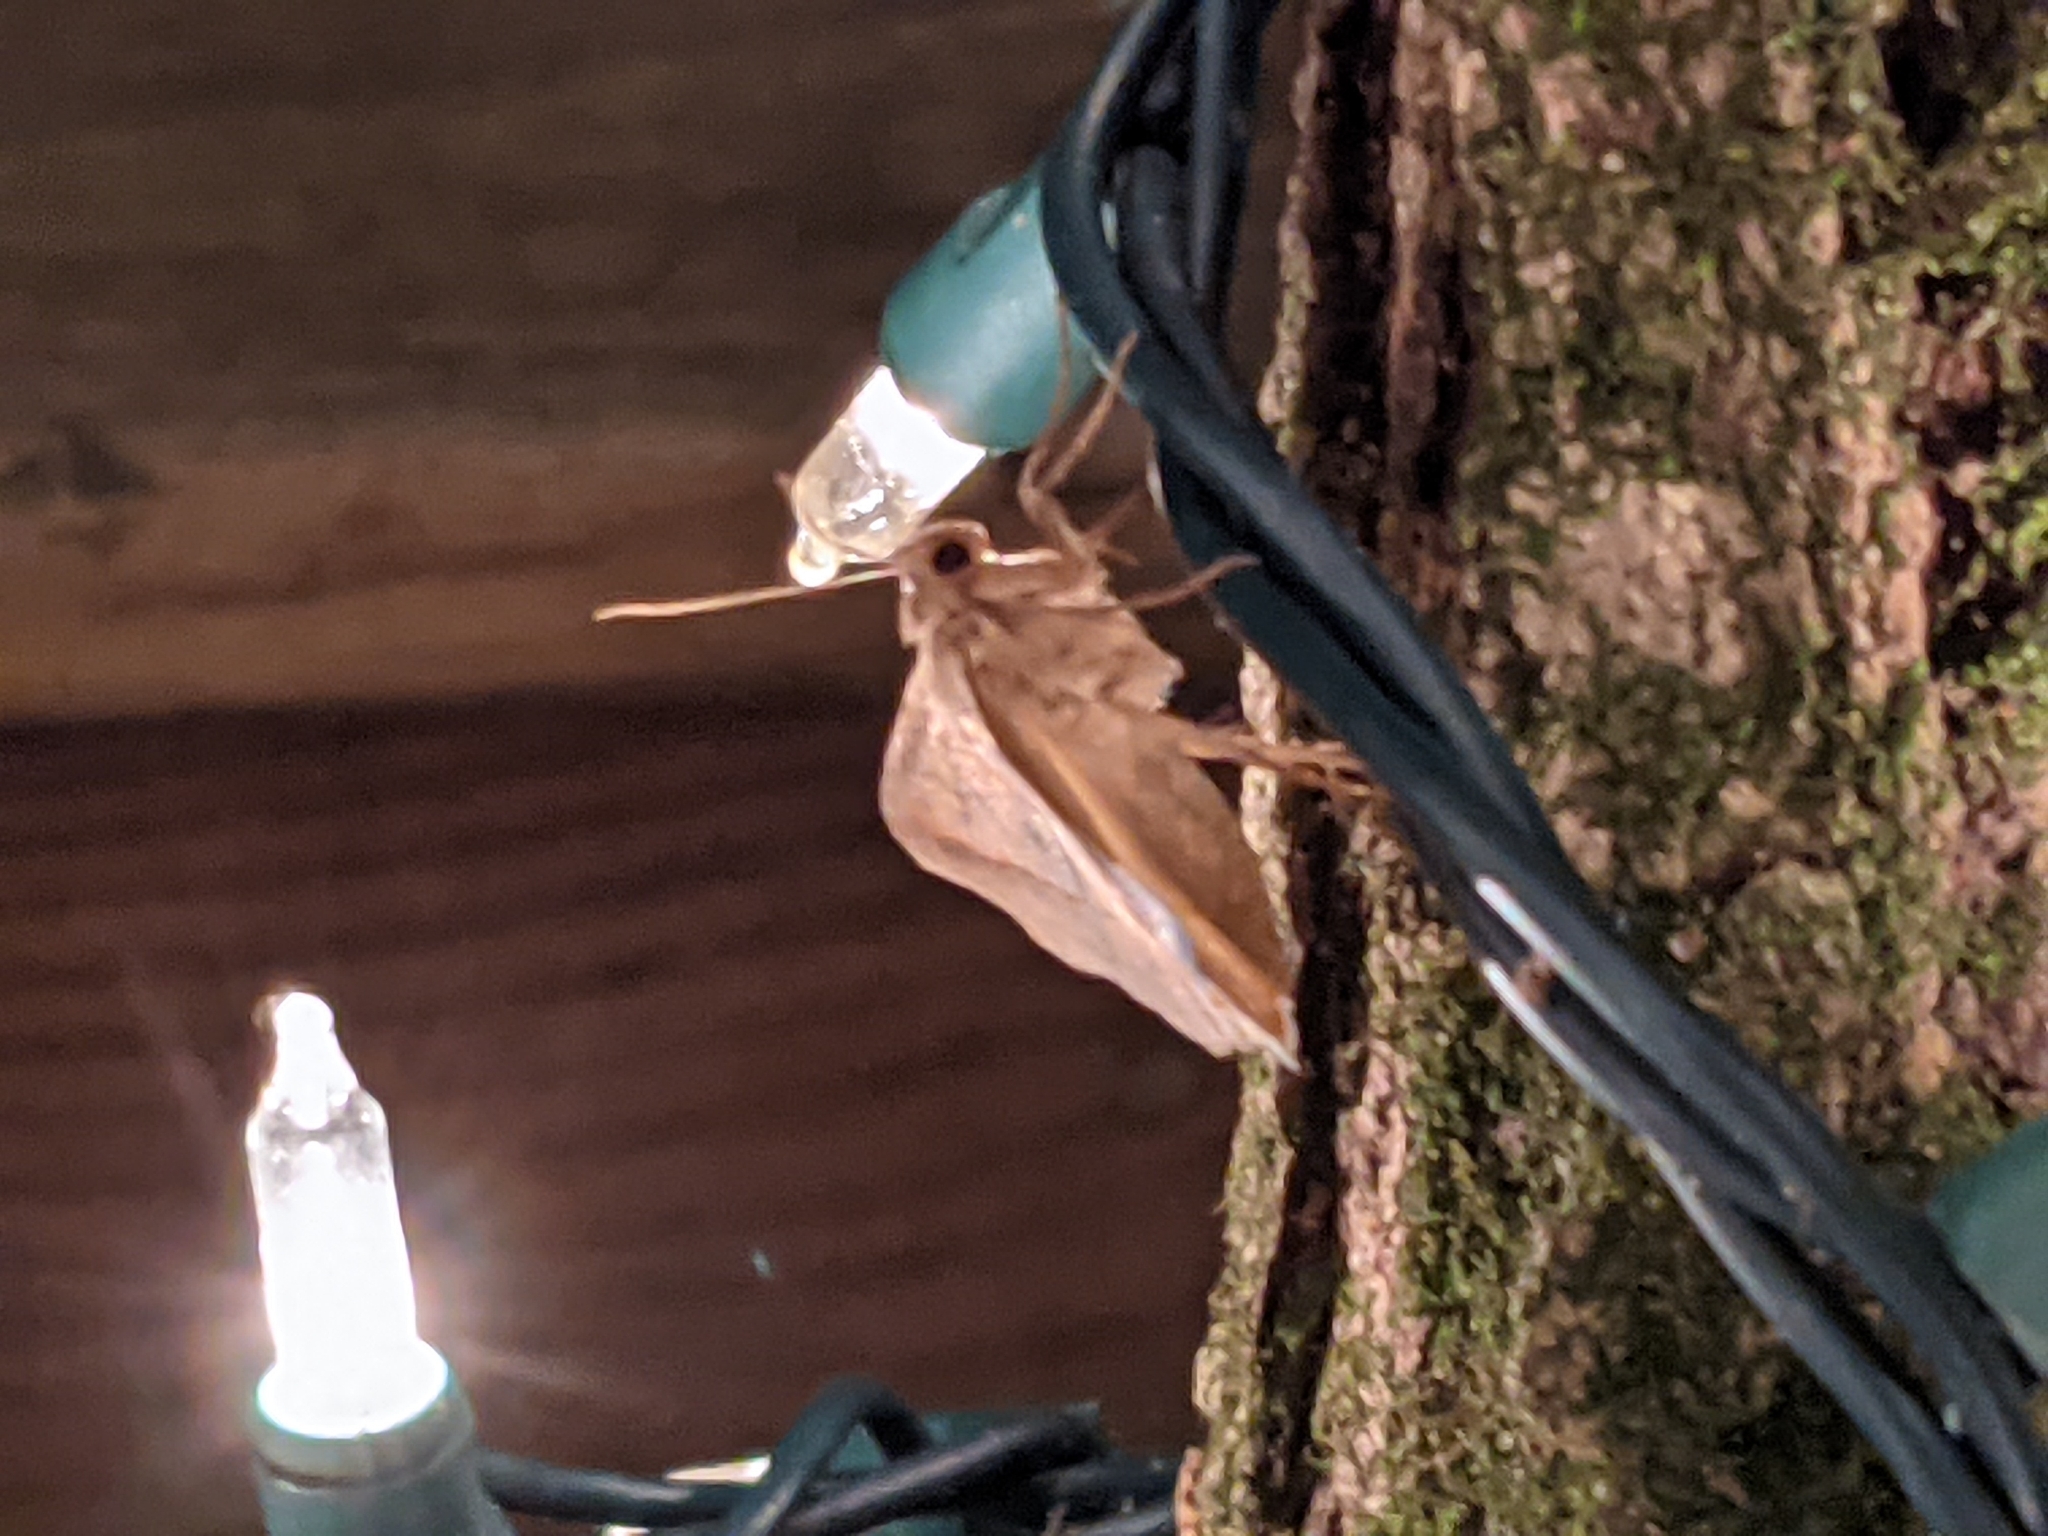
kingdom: Animalia
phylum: Arthropoda
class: Insecta
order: Lepidoptera
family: Erebidae
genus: Mocis
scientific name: Mocis texana
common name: Texas mocis moth
